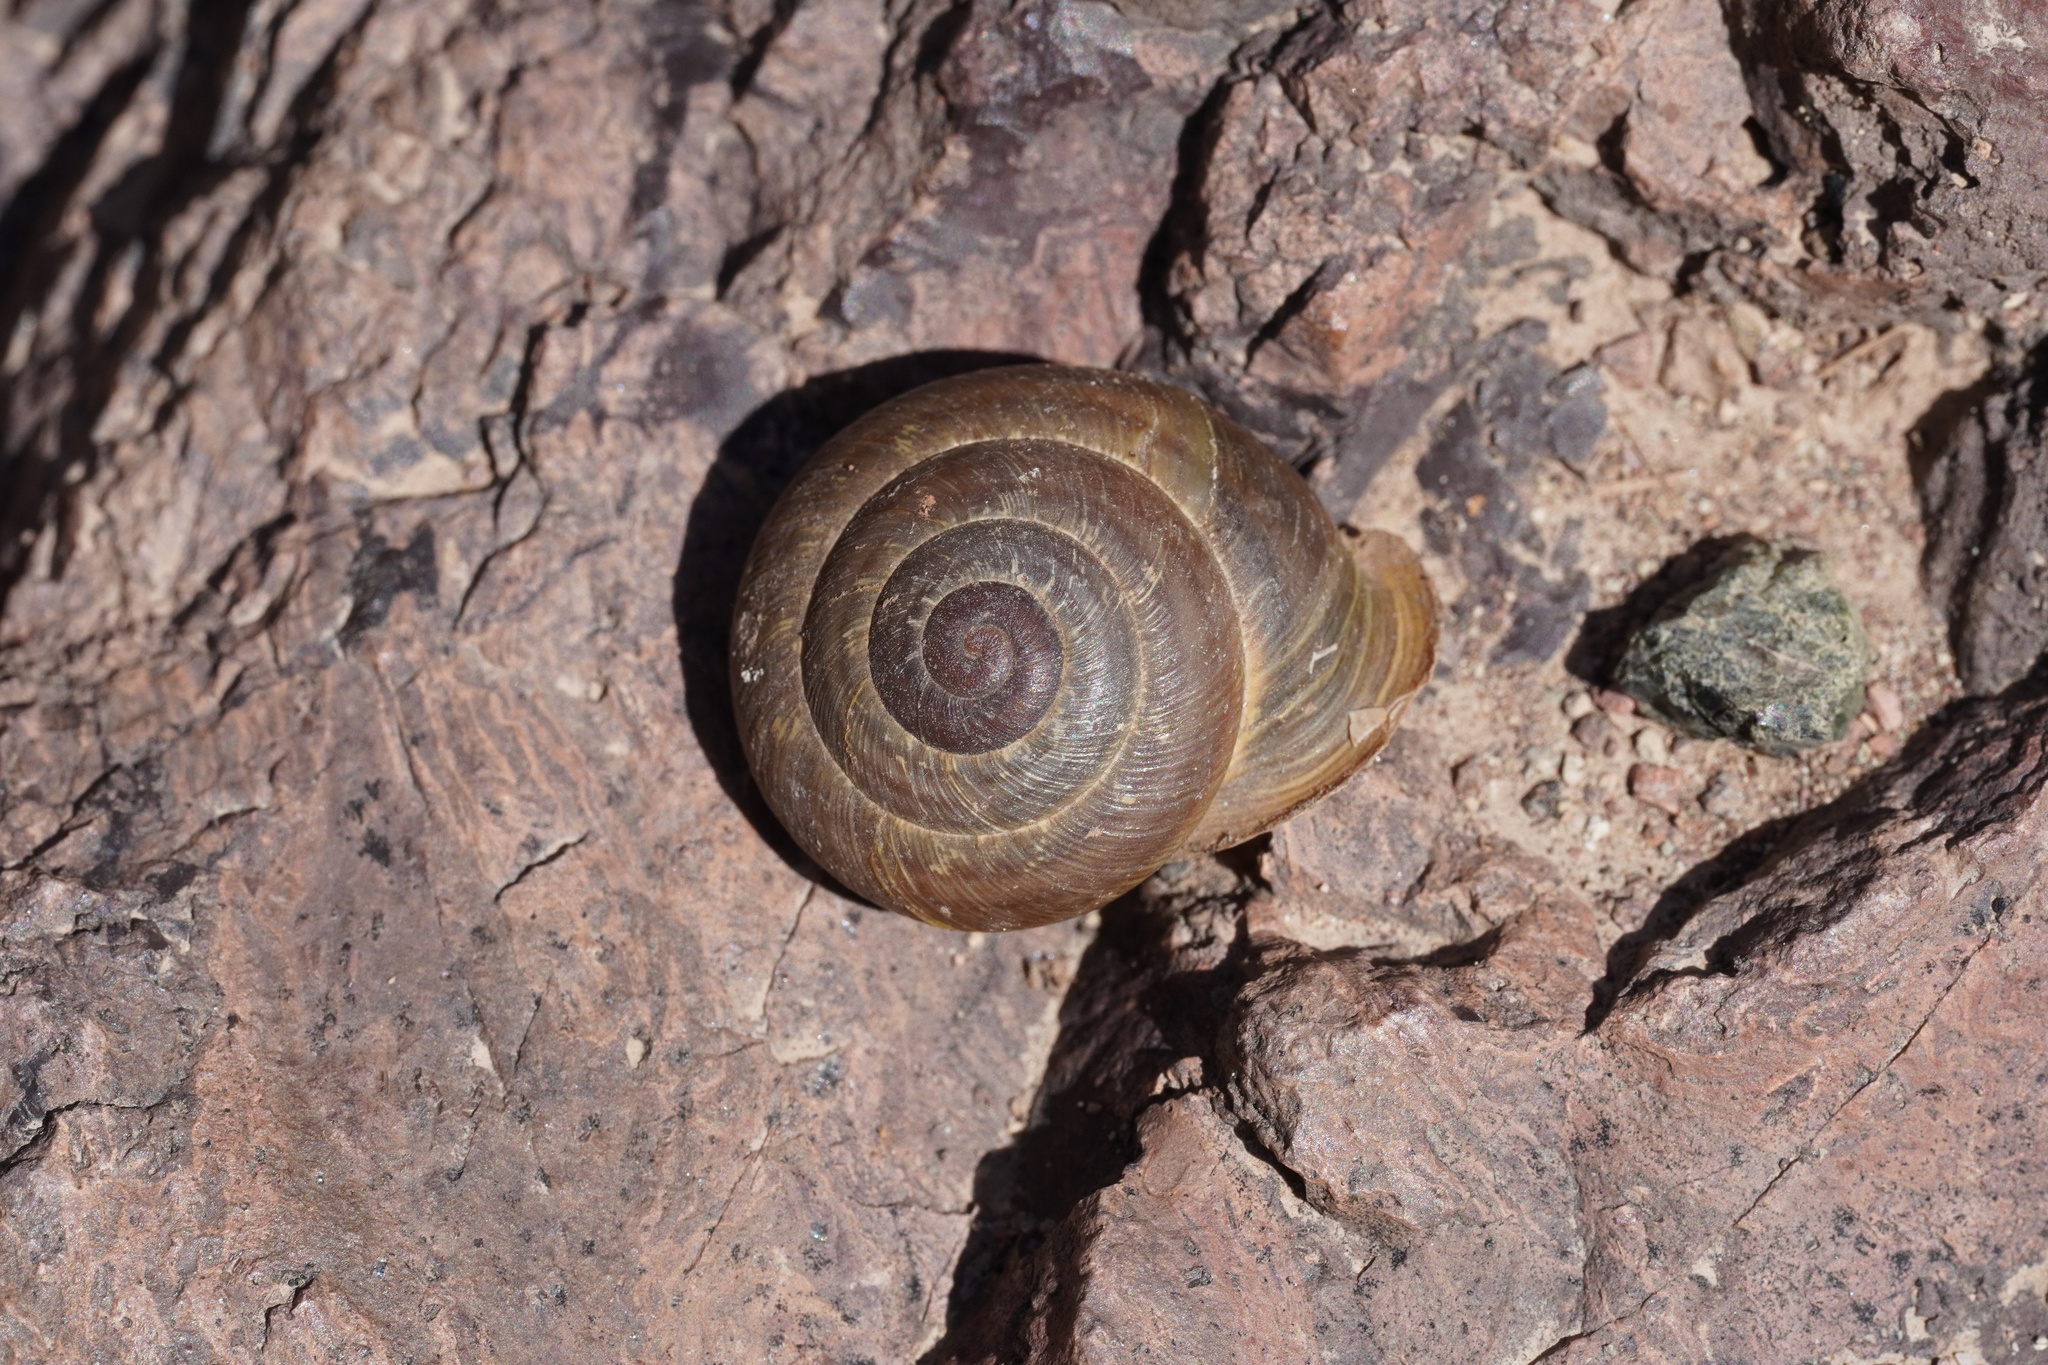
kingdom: Animalia
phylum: Mollusca
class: Gastropoda
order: Stylommatophora
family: Helicidae
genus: Hemicycla
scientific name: Hemicycla psathyra
